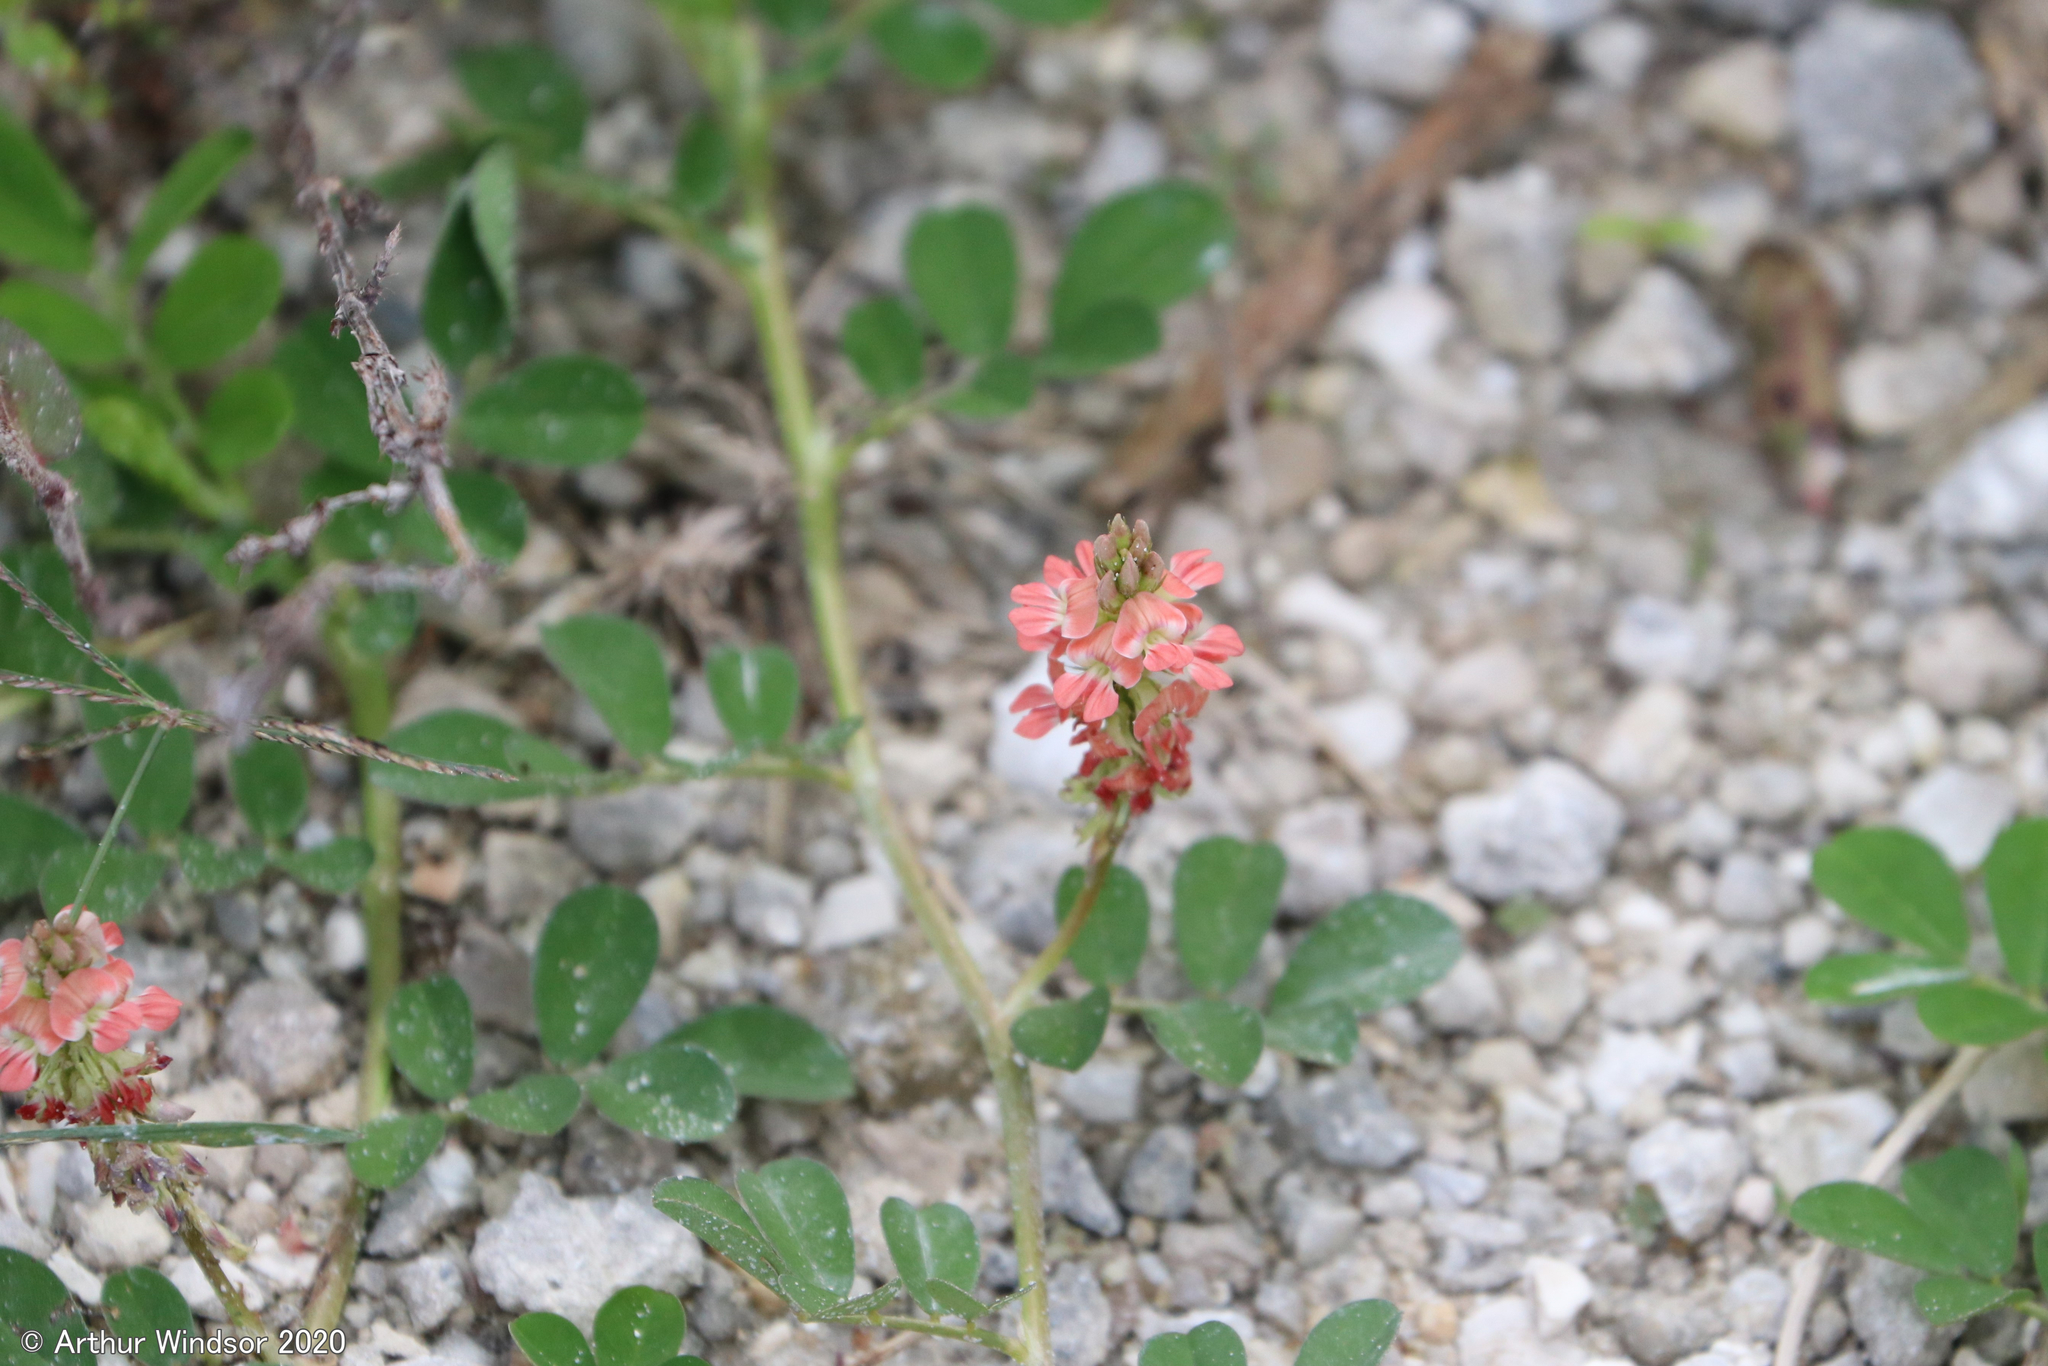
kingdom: Plantae
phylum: Tracheophyta
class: Magnoliopsida
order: Fabales
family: Fabaceae
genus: Indigofera
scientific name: Indigofera spicata
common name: Creeping indigo
